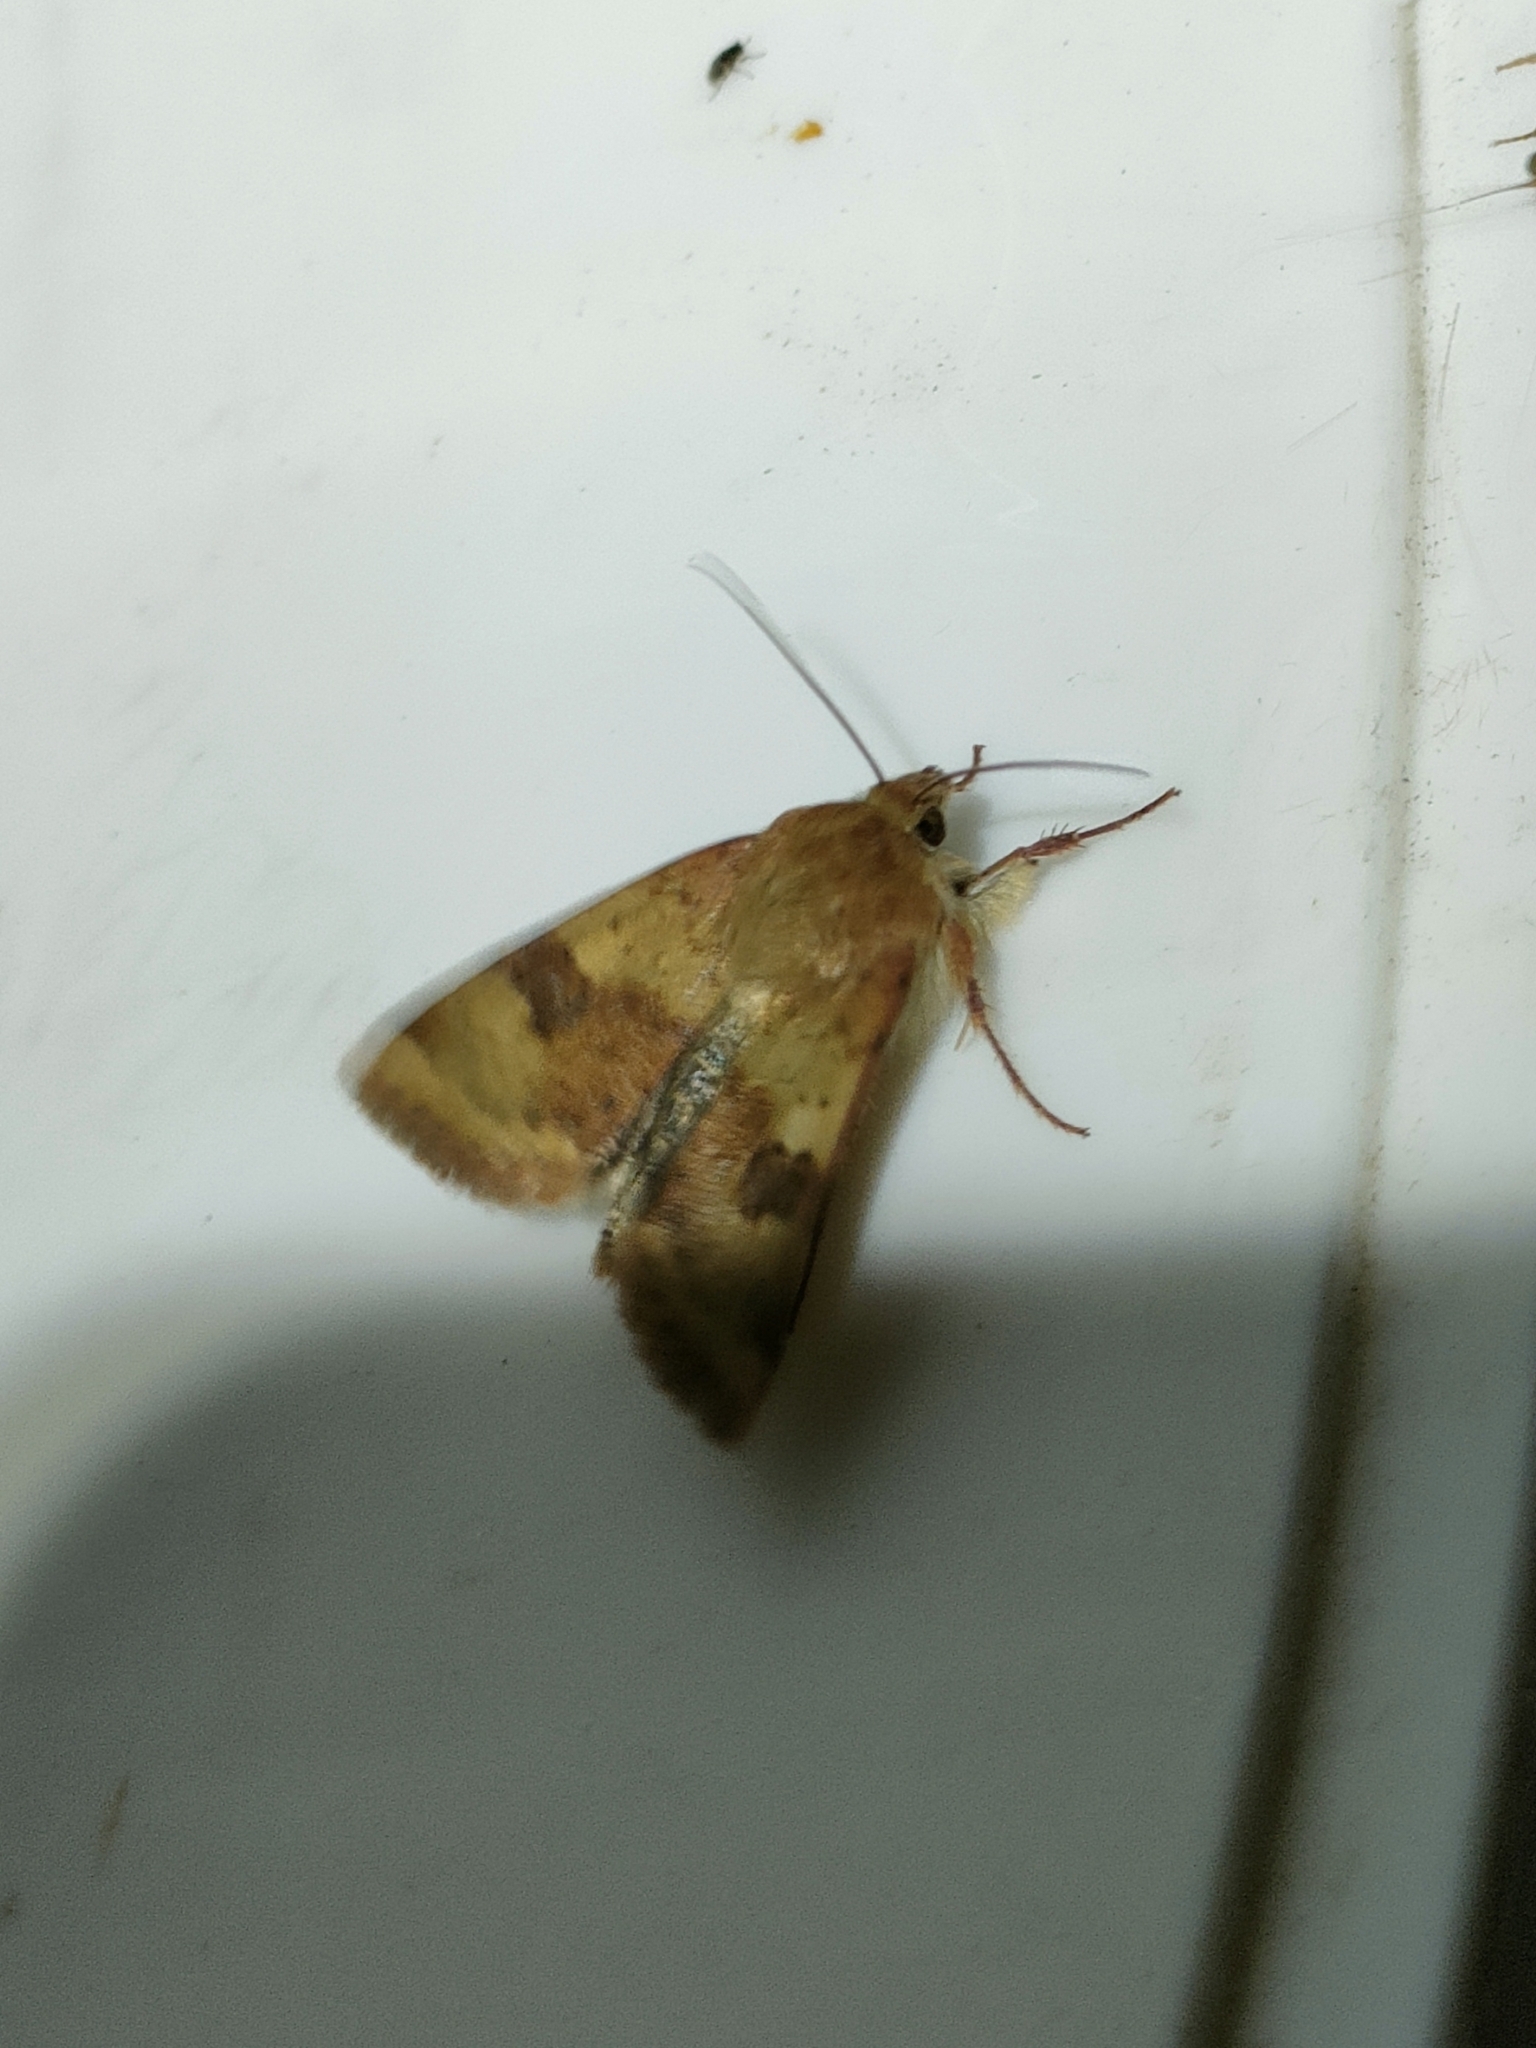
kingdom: Animalia
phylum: Arthropoda
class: Insecta
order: Lepidoptera
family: Noctuidae
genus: Heliothis
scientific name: Heliothis viriplaca
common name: Marbled clover
